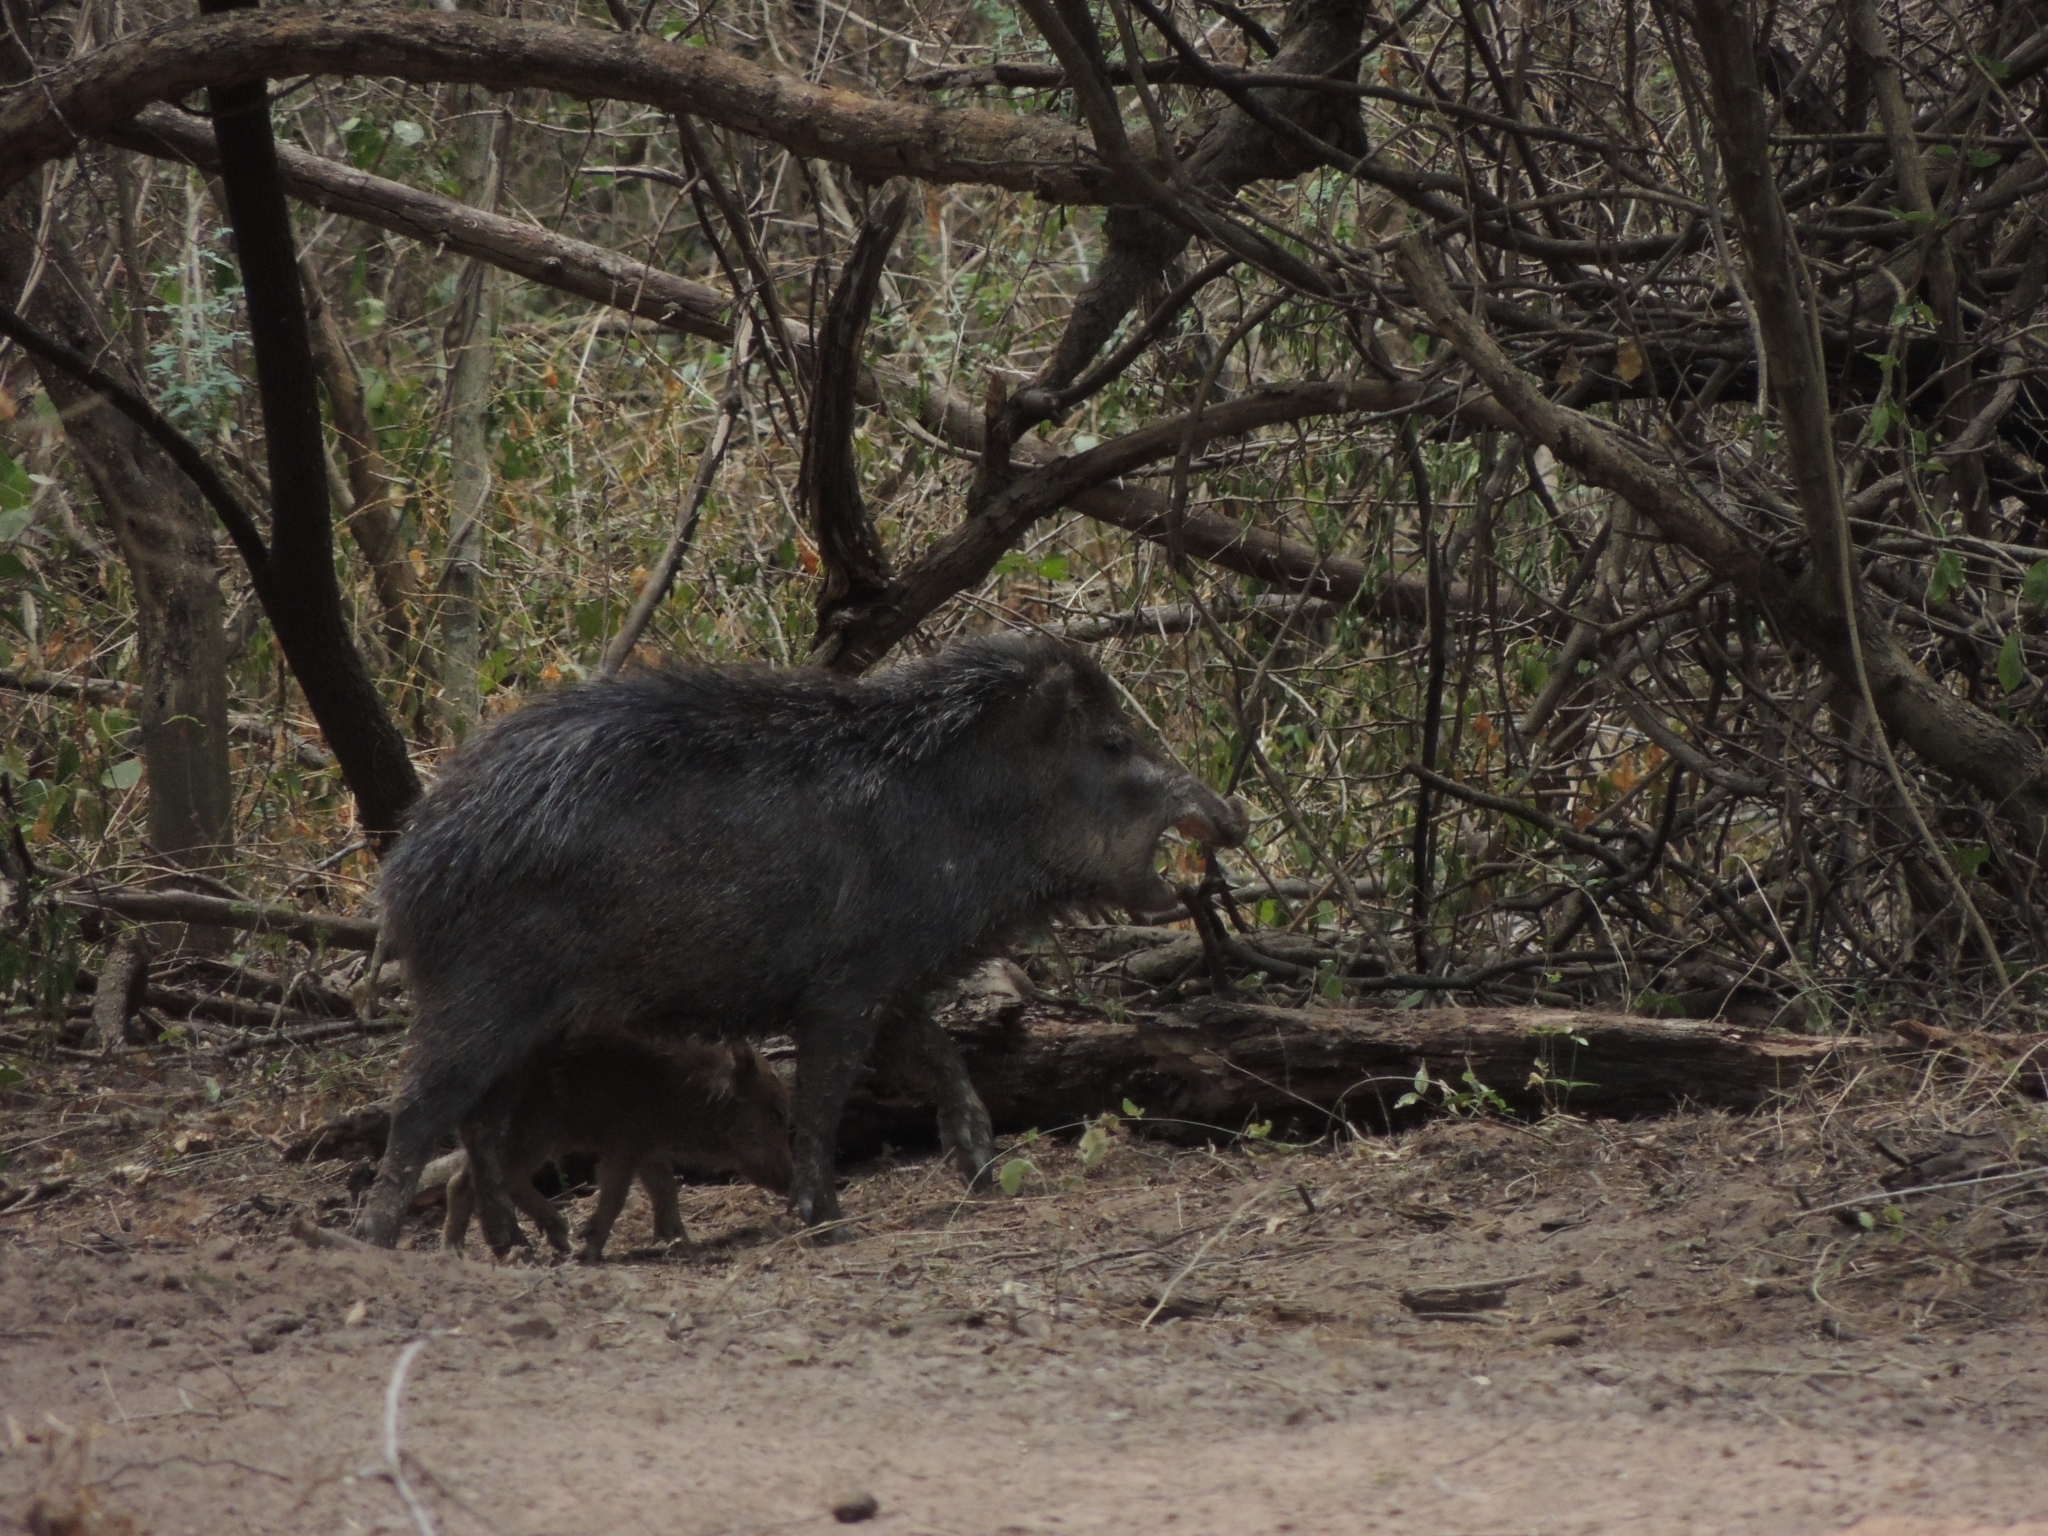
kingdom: Animalia
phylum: Chordata
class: Mammalia
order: Artiodactyla
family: Tayassuidae
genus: Tayassu
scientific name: Tayassu pecari
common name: White-lipped peccary
